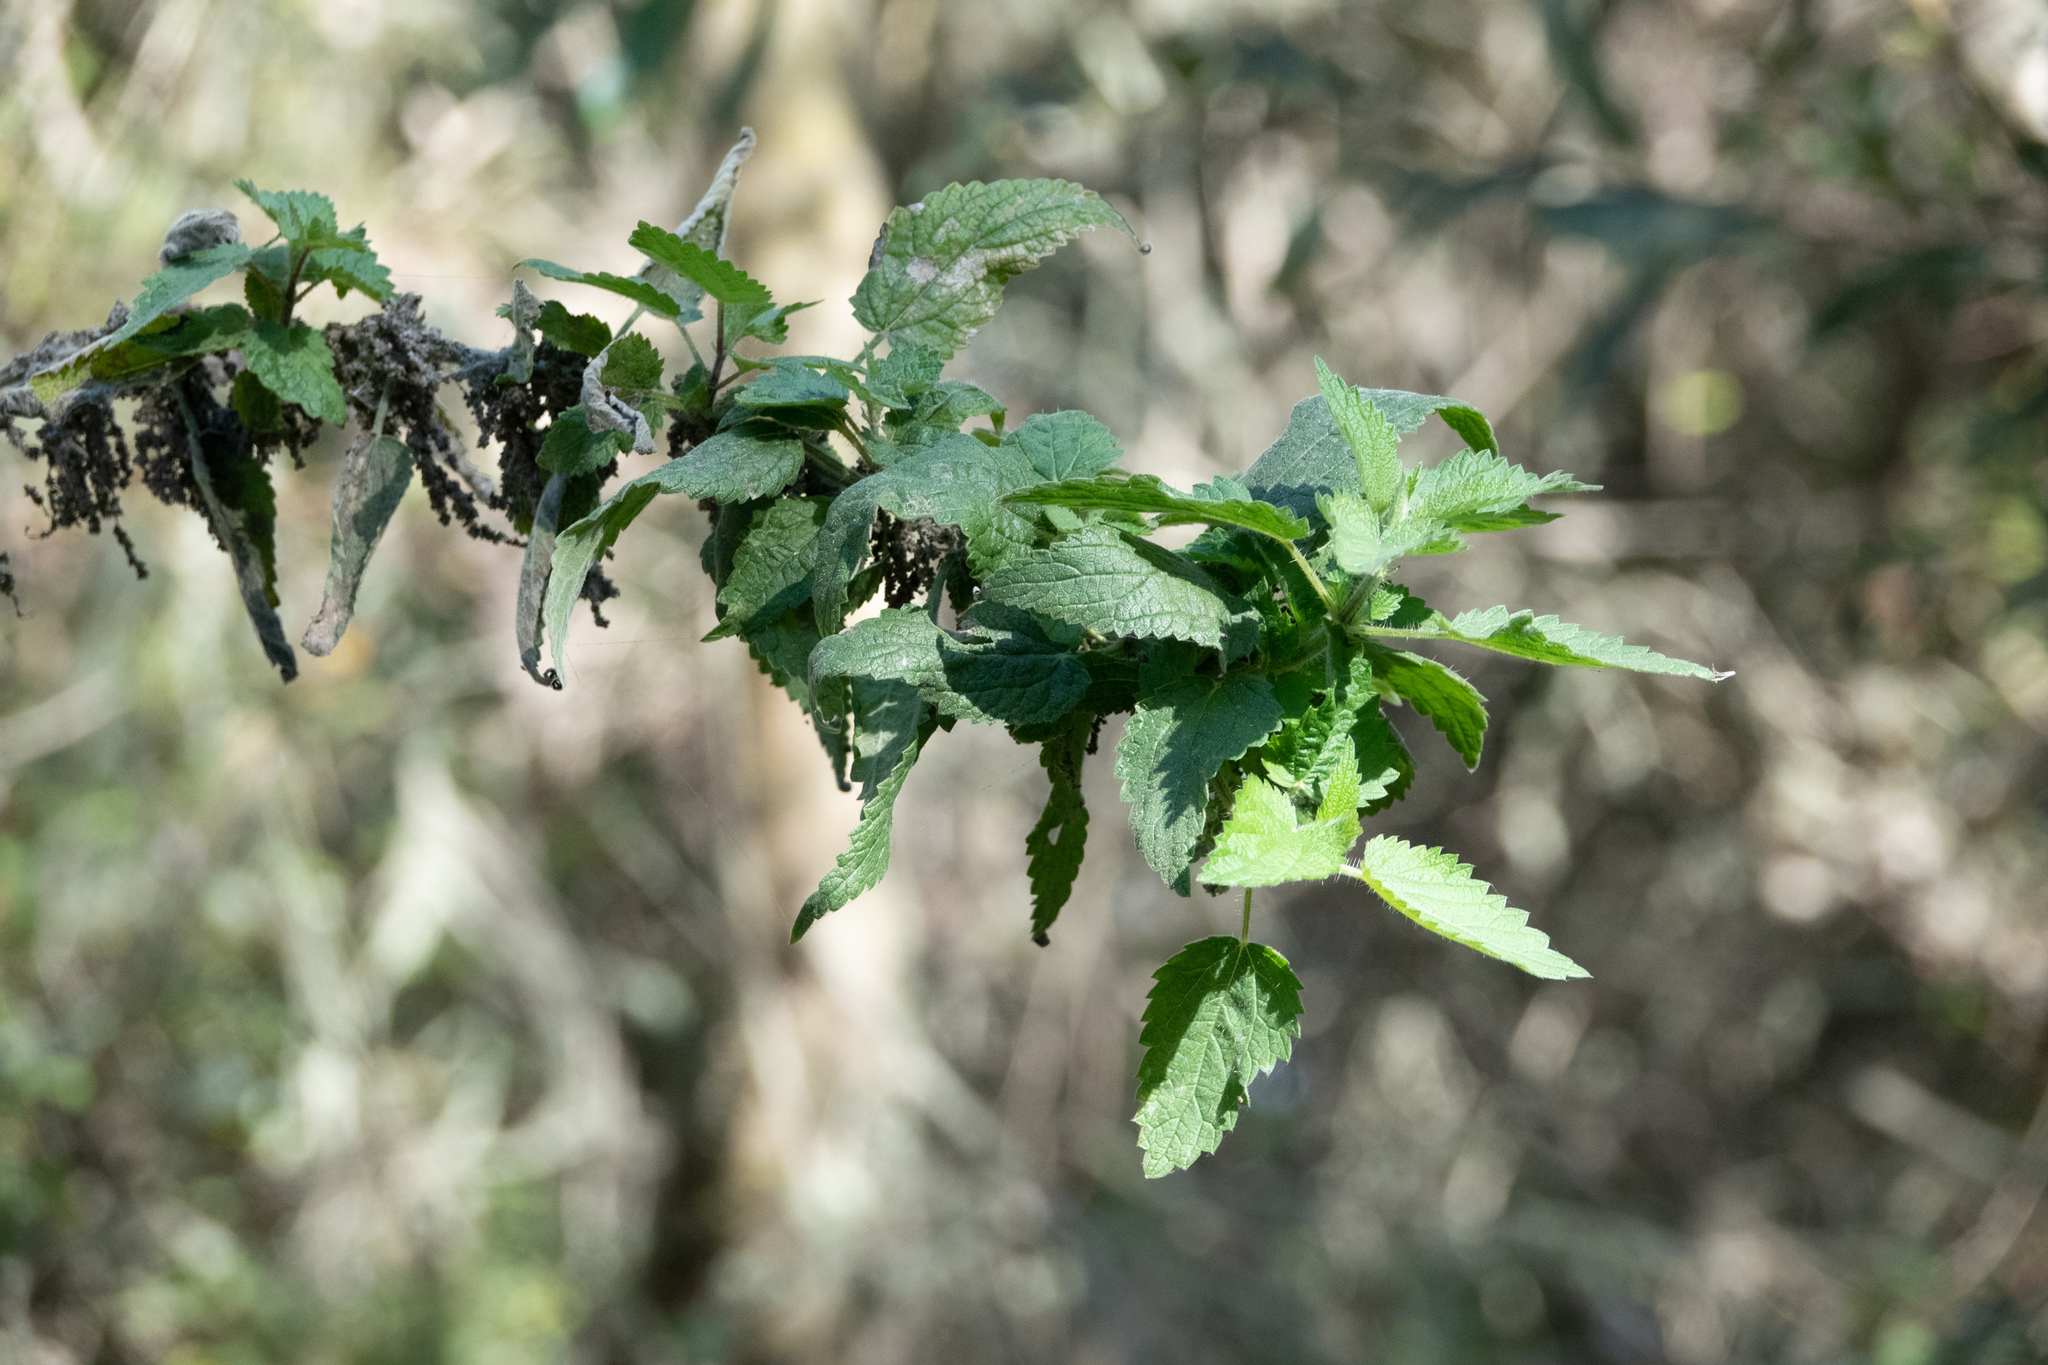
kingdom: Plantae
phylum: Tracheophyta
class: Magnoliopsida
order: Rosales
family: Urticaceae
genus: Urtica
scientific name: Urtica dioica
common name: Common nettle
